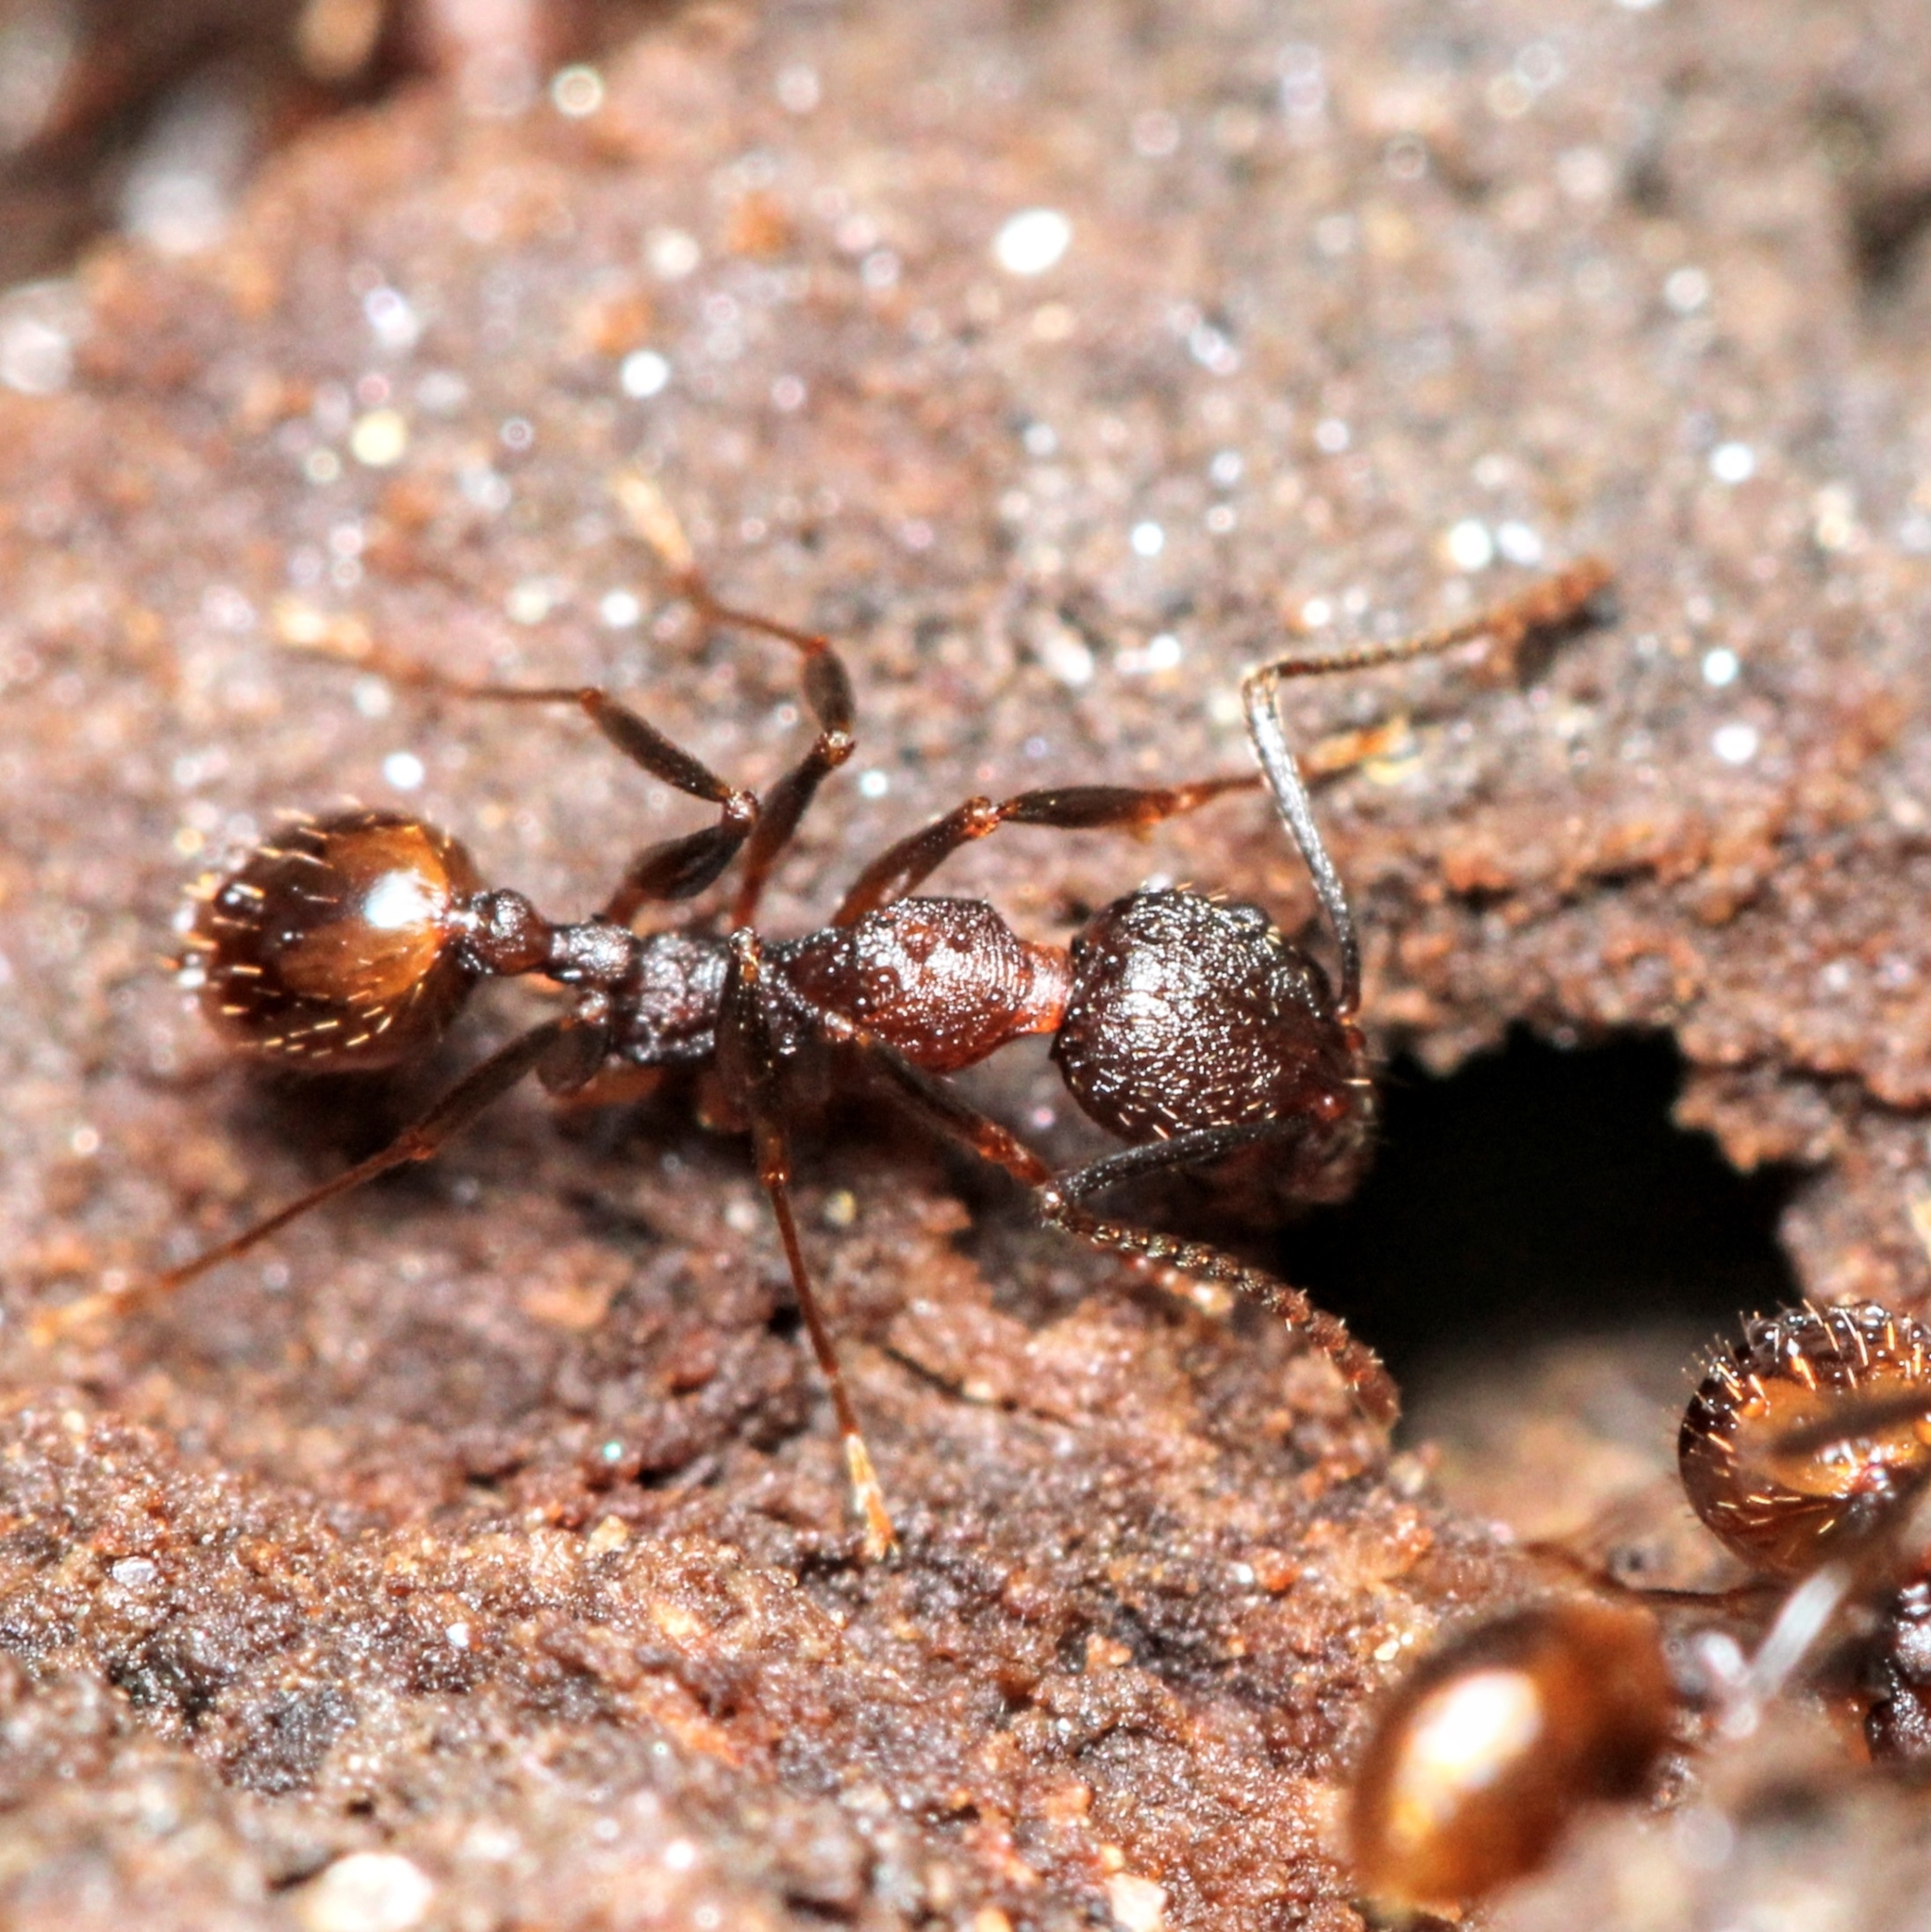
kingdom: Animalia
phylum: Arthropoda
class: Insecta
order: Hymenoptera
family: Formicidae
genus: Aphaenogaster
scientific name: Aphaenogaster fulva
